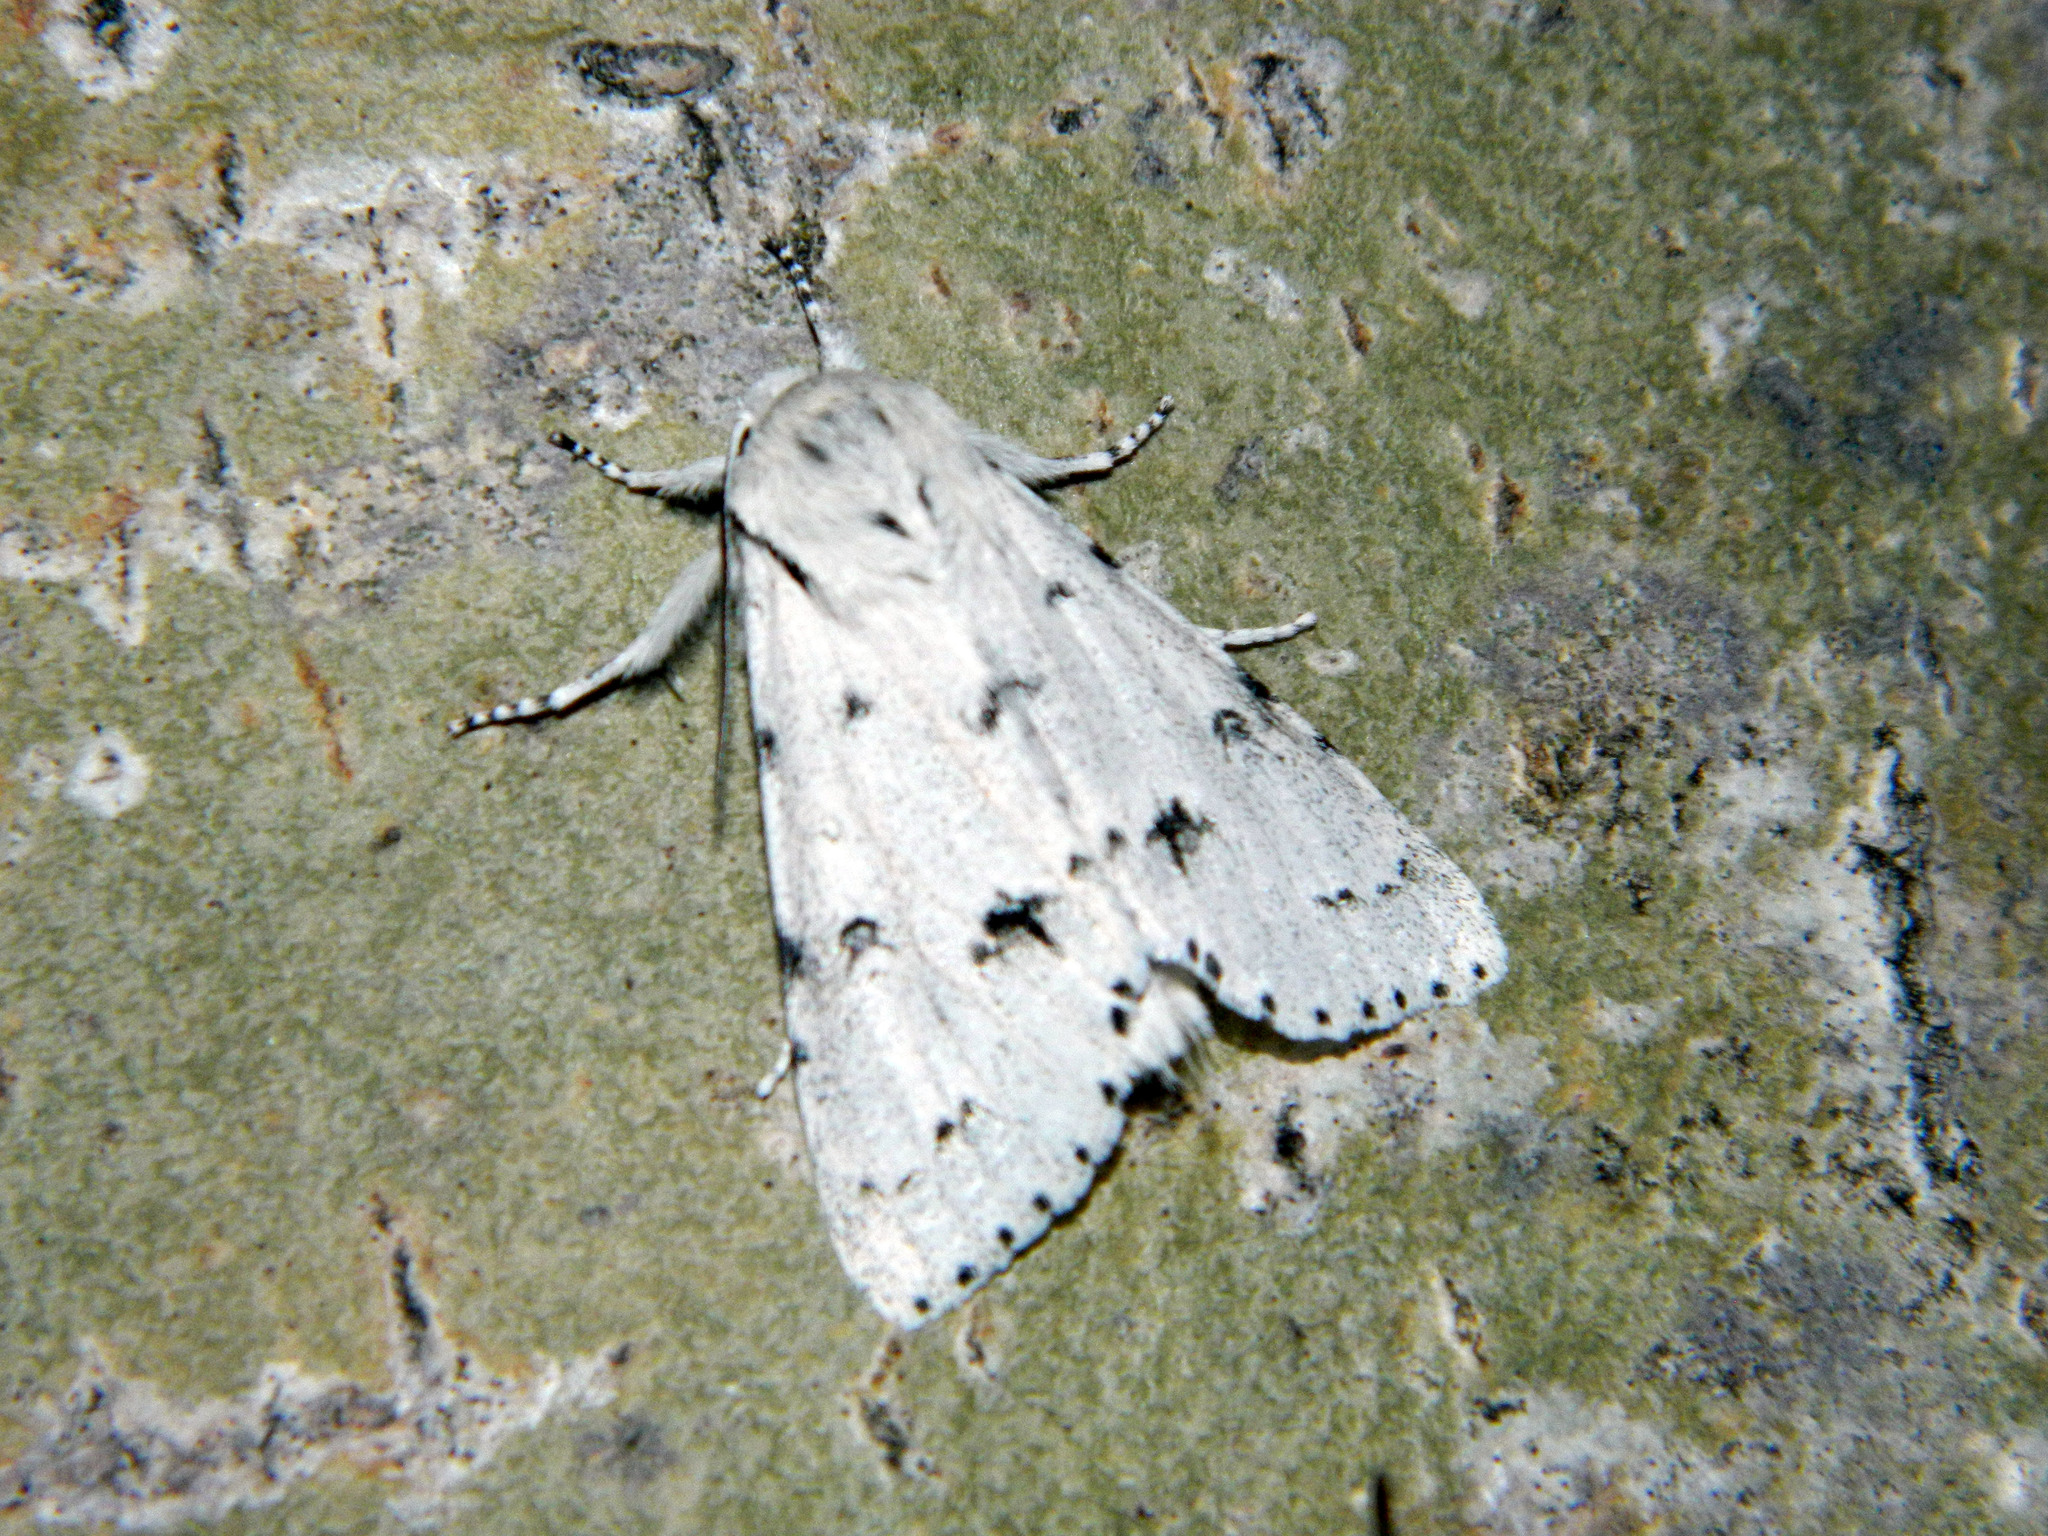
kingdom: Animalia
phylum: Arthropoda
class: Insecta
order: Lepidoptera
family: Noctuidae
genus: Acronicta
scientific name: Acronicta vulpina
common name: Miller dagger
